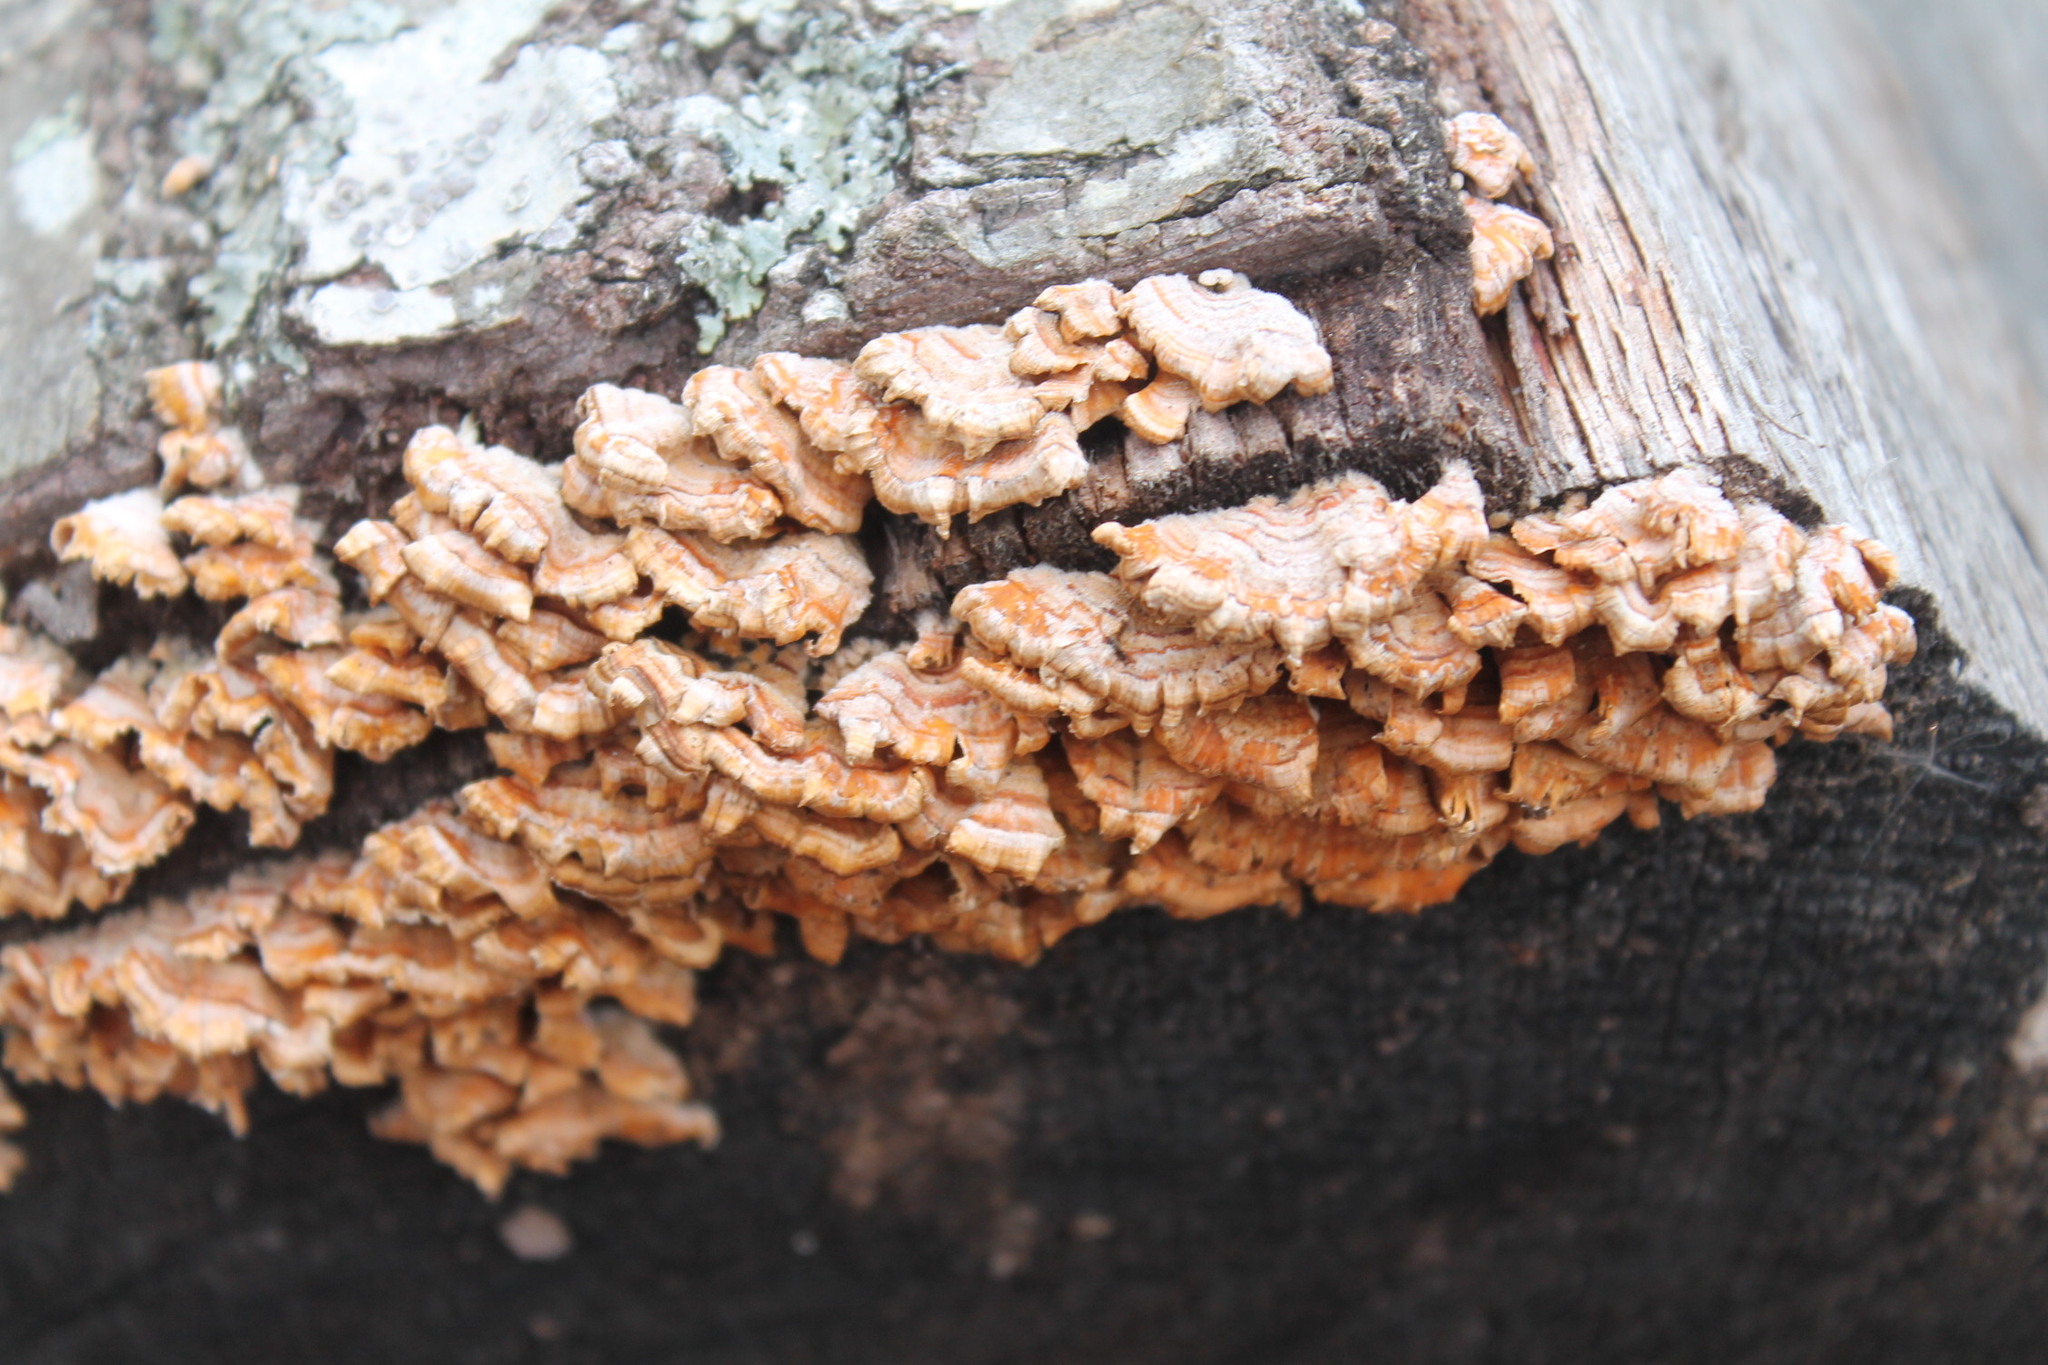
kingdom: Fungi
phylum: Basidiomycota
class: Agaricomycetes
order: Russulales
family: Stereaceae
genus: Stereum
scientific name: Stereum complicatum
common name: Crowded parchment
